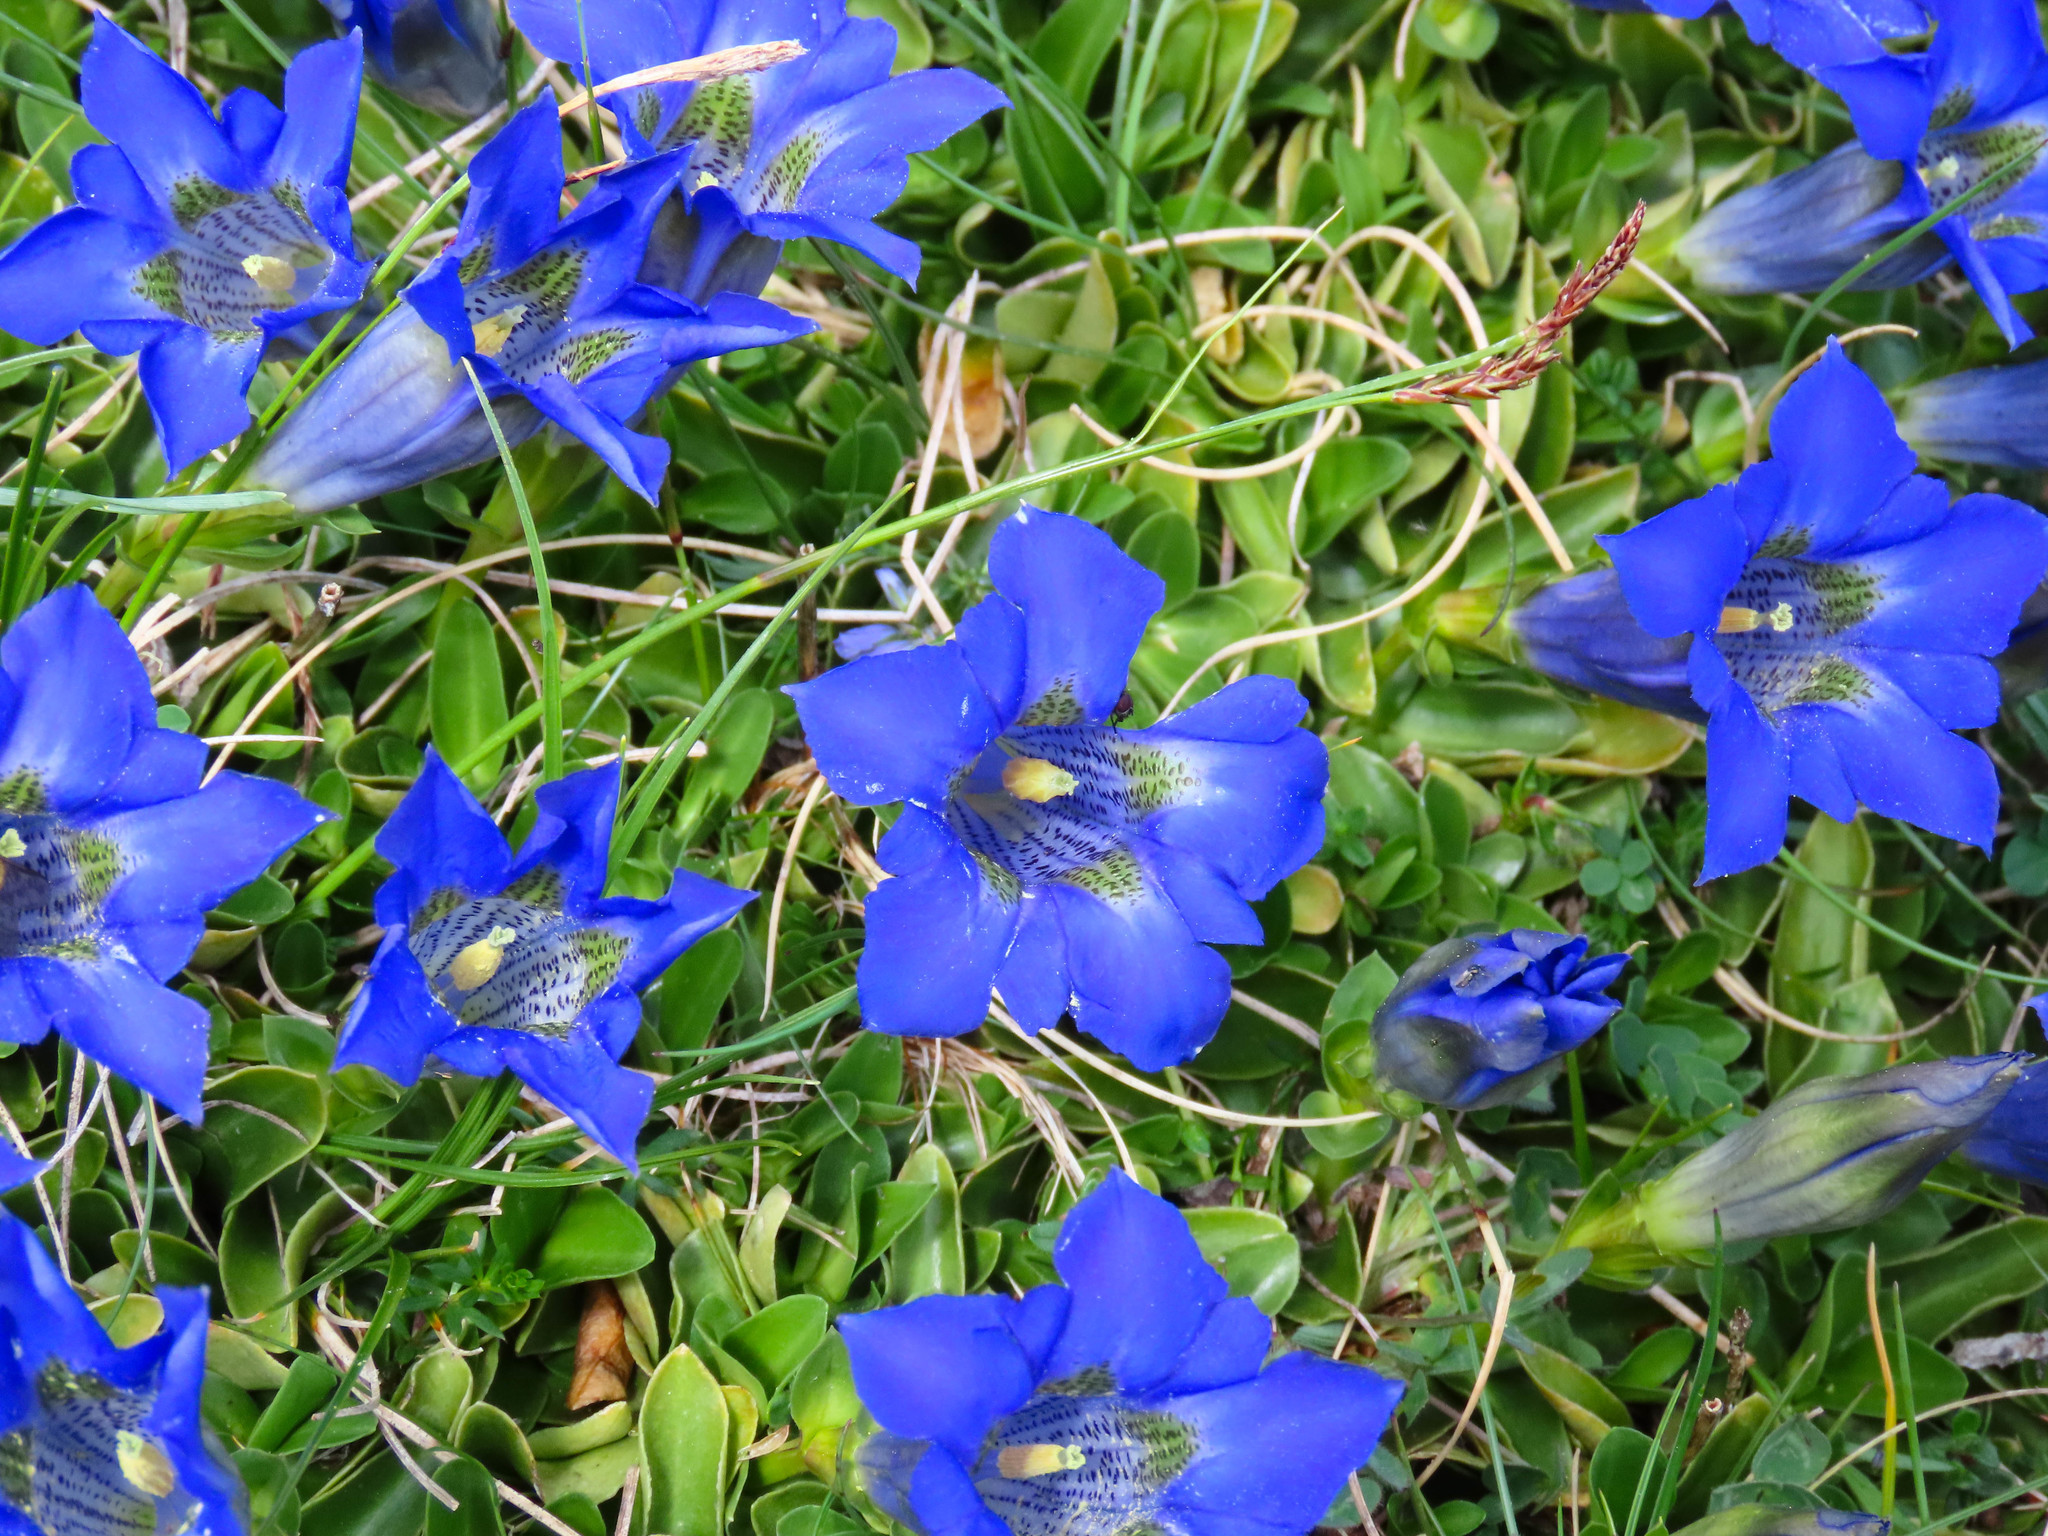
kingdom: Plantae
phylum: Tracheophyta
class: Magnoliopsida
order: Gentianales
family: Gentianaceae
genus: Gentiana
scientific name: Gentiana acaulis
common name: Trumpet gentian
